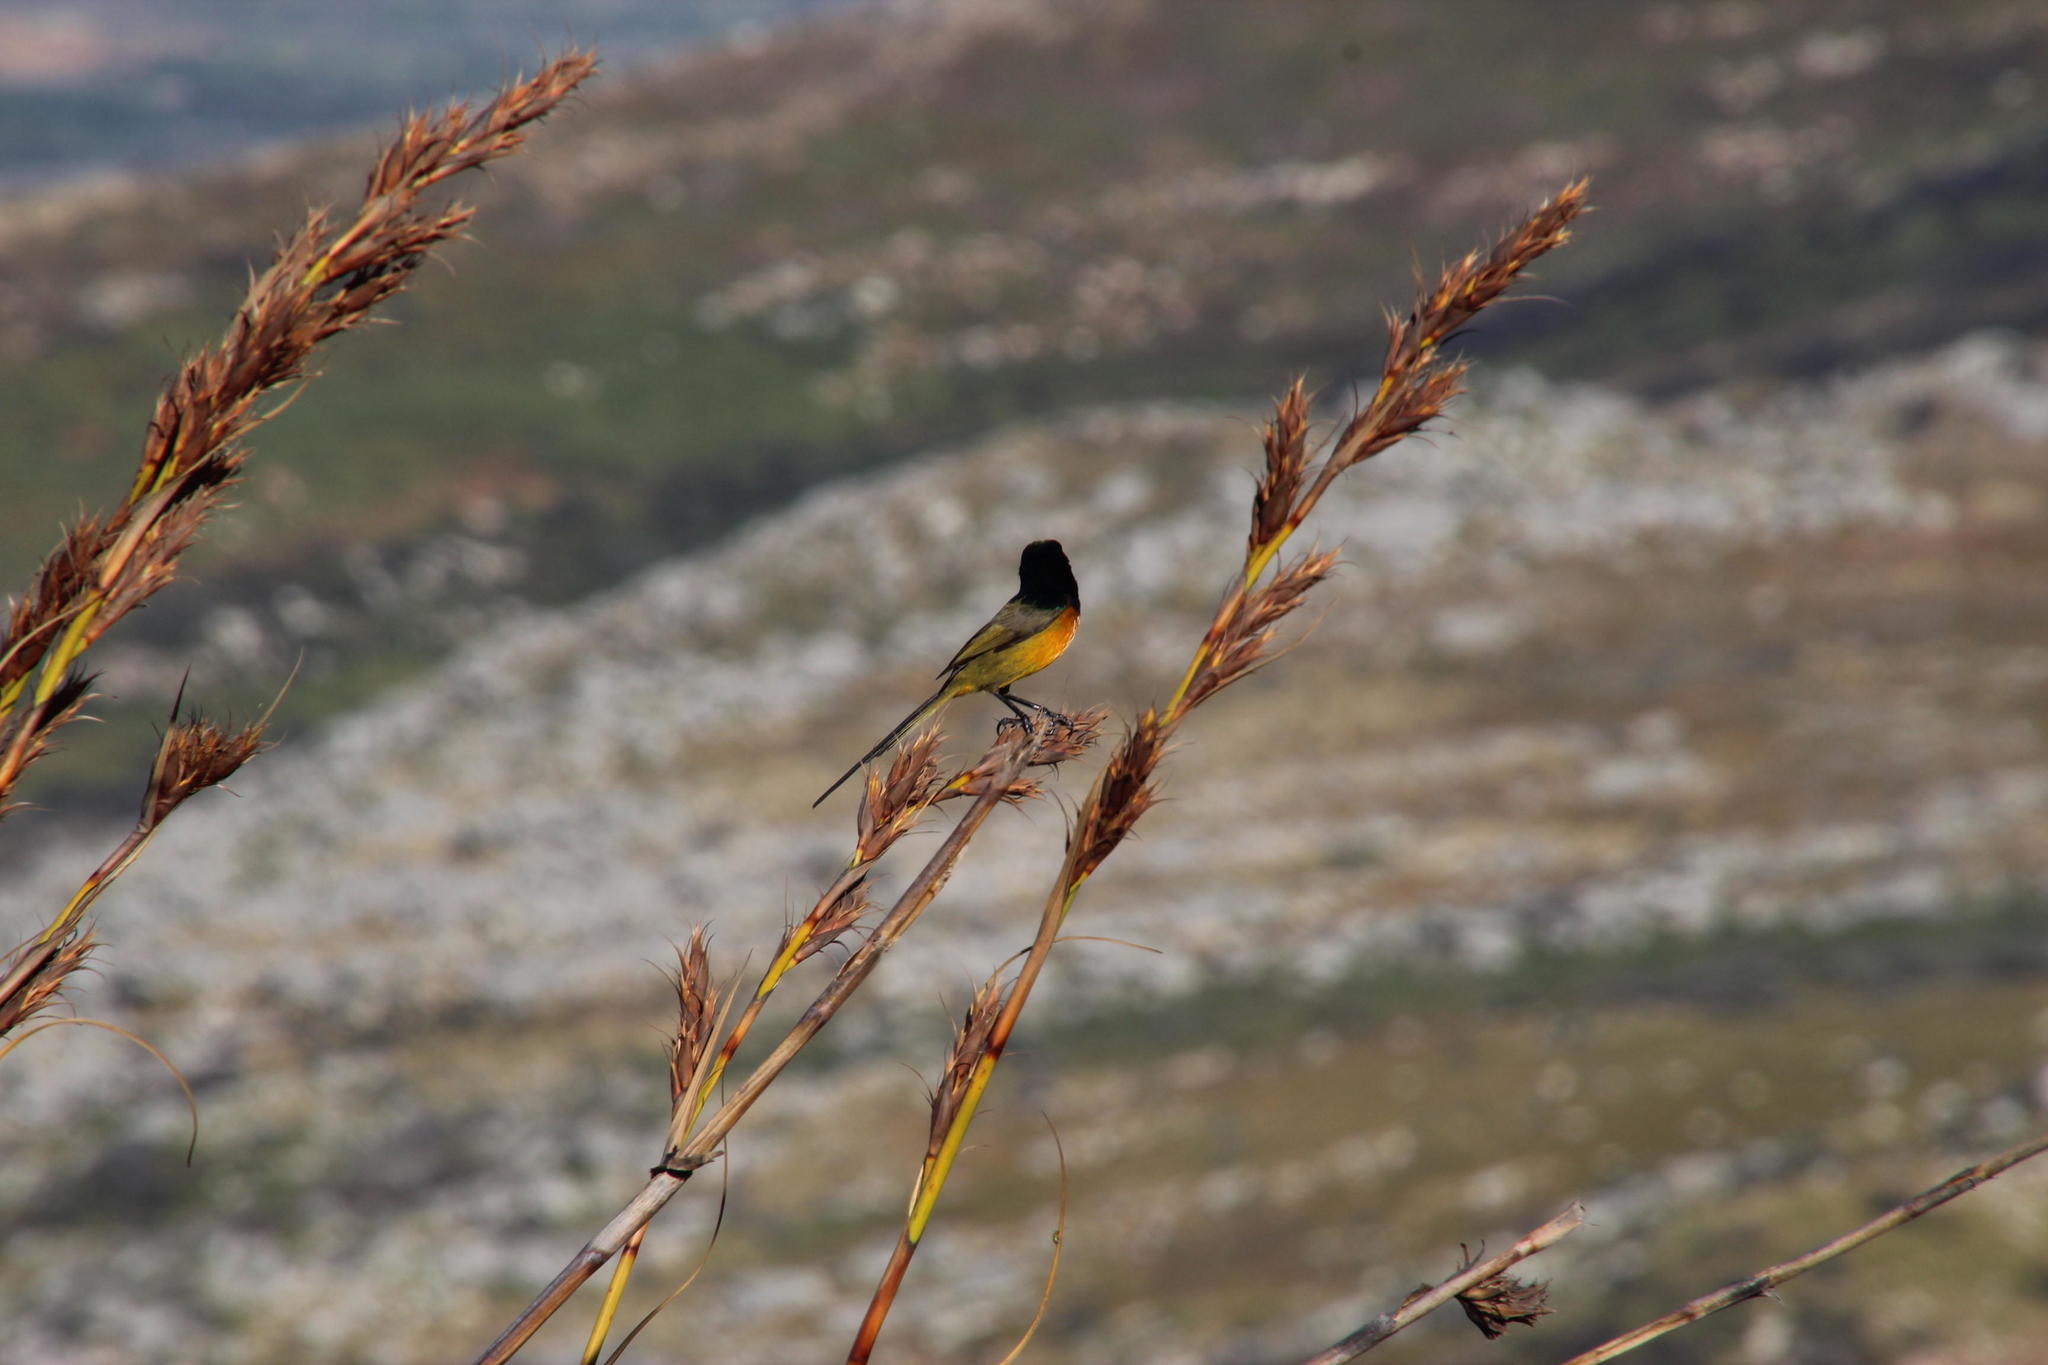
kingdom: Animalia
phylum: Chordata
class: Aves
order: Passeriformes
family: Nectariniidae
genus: Anthobaphes
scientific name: Anthobaphes violacea
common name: Orange-breasted sunbird
